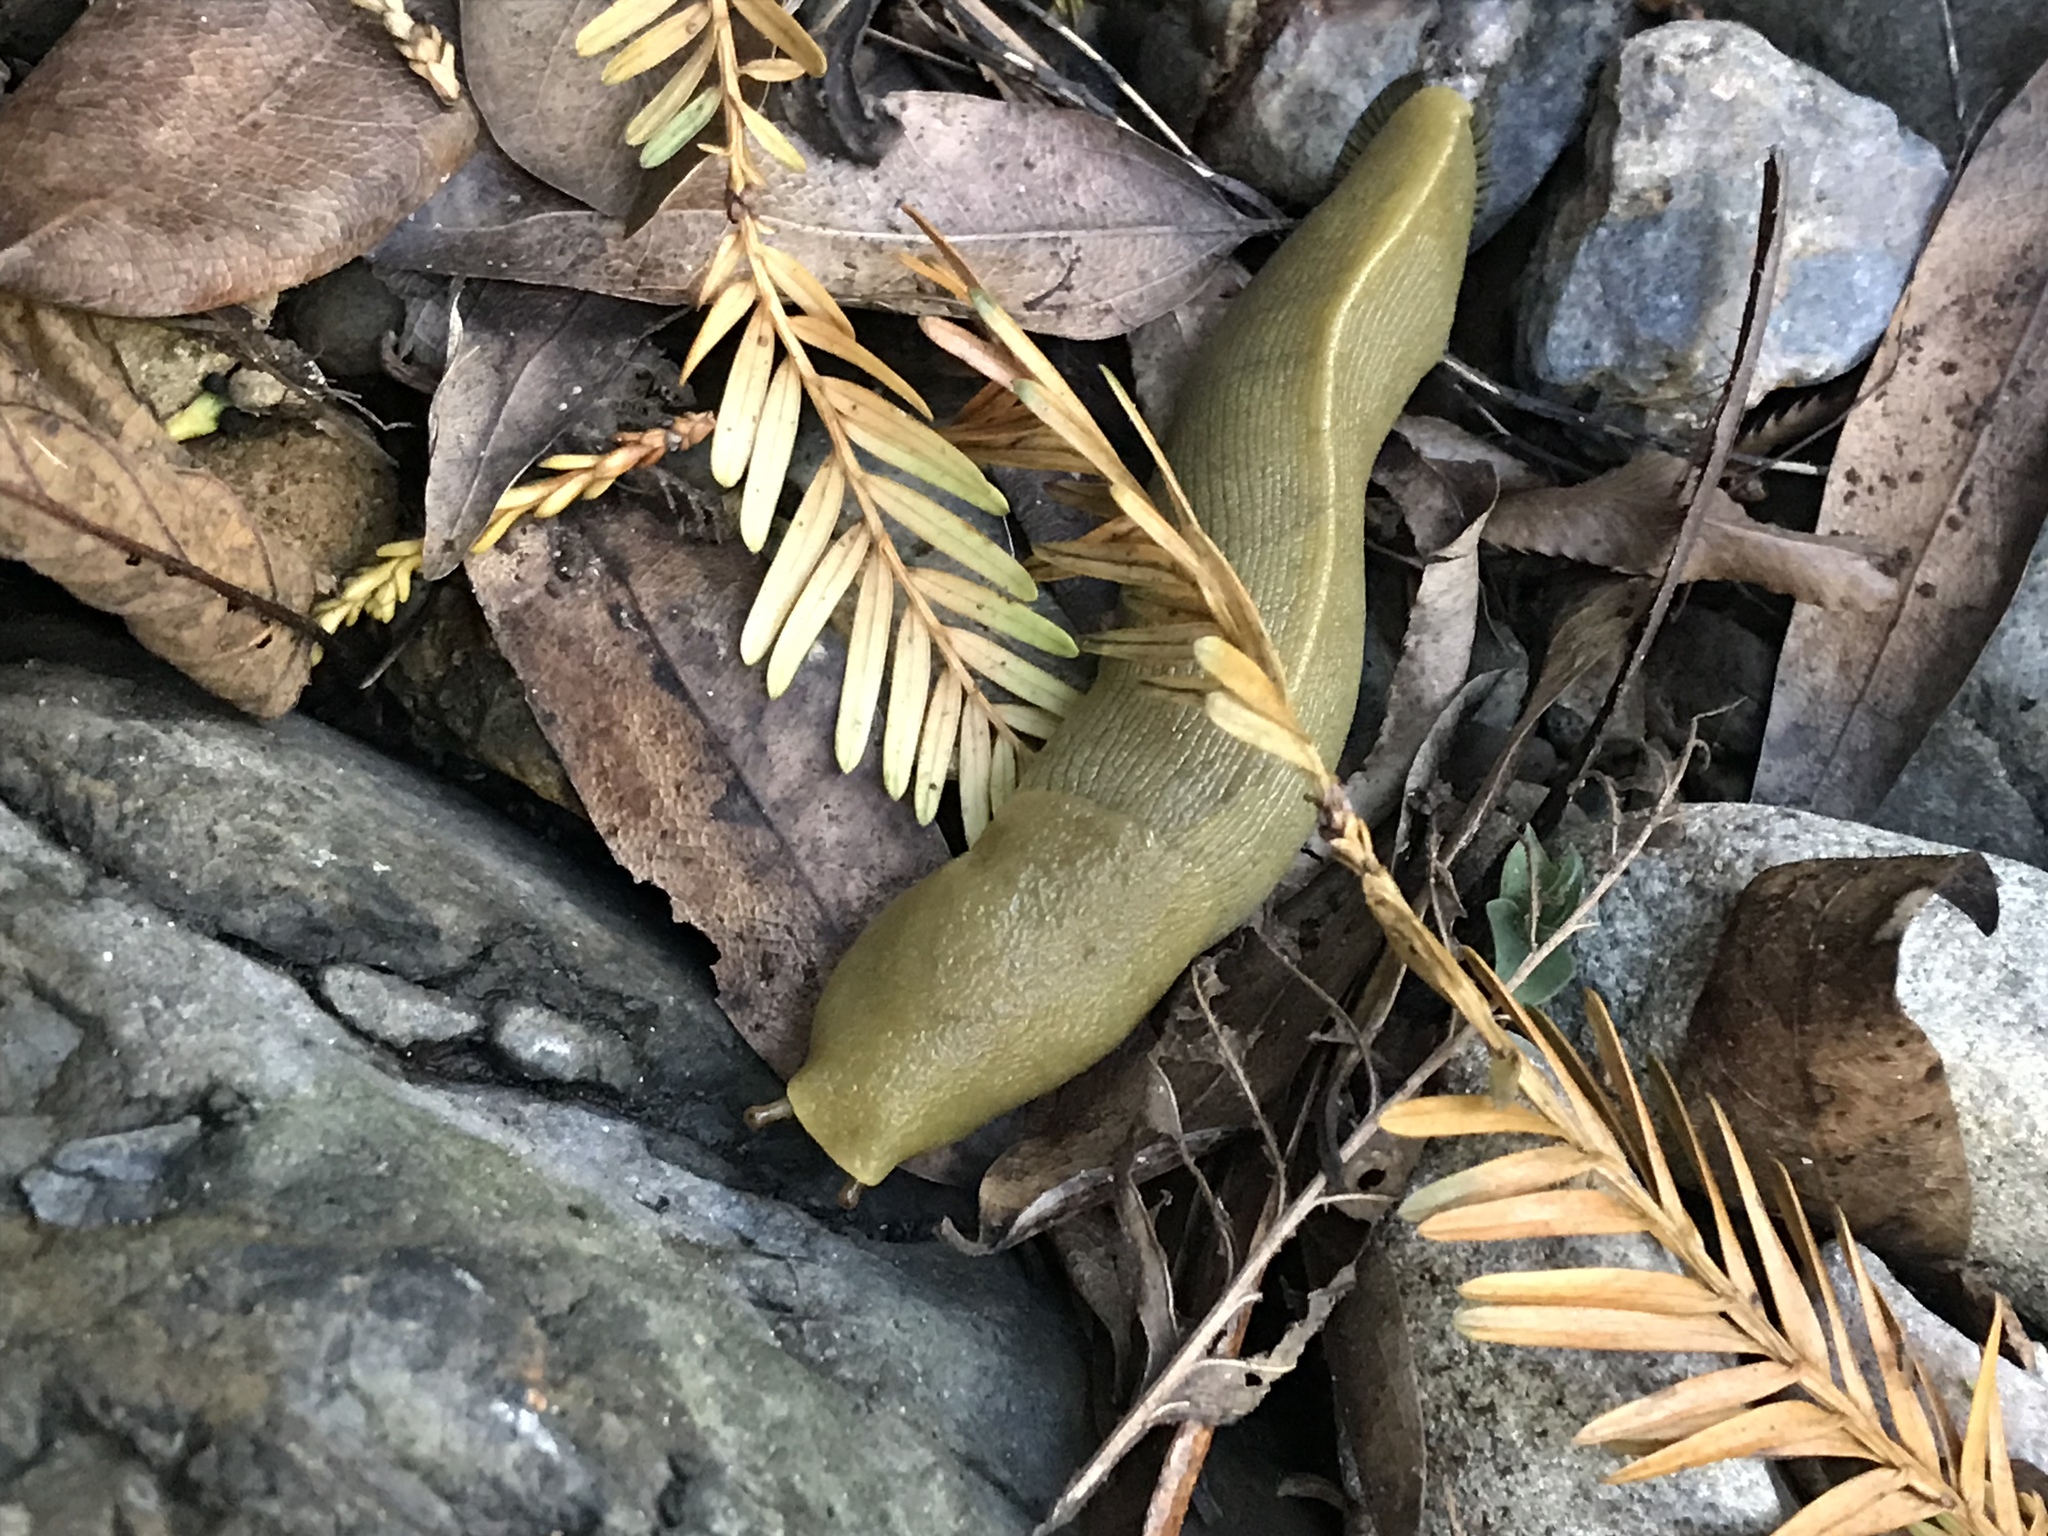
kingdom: Animalia
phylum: Mollusca
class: Gastropoda
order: Stylommatophora
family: Ariolimacidae
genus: Ariolimax
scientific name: Ariolimax buttoni
